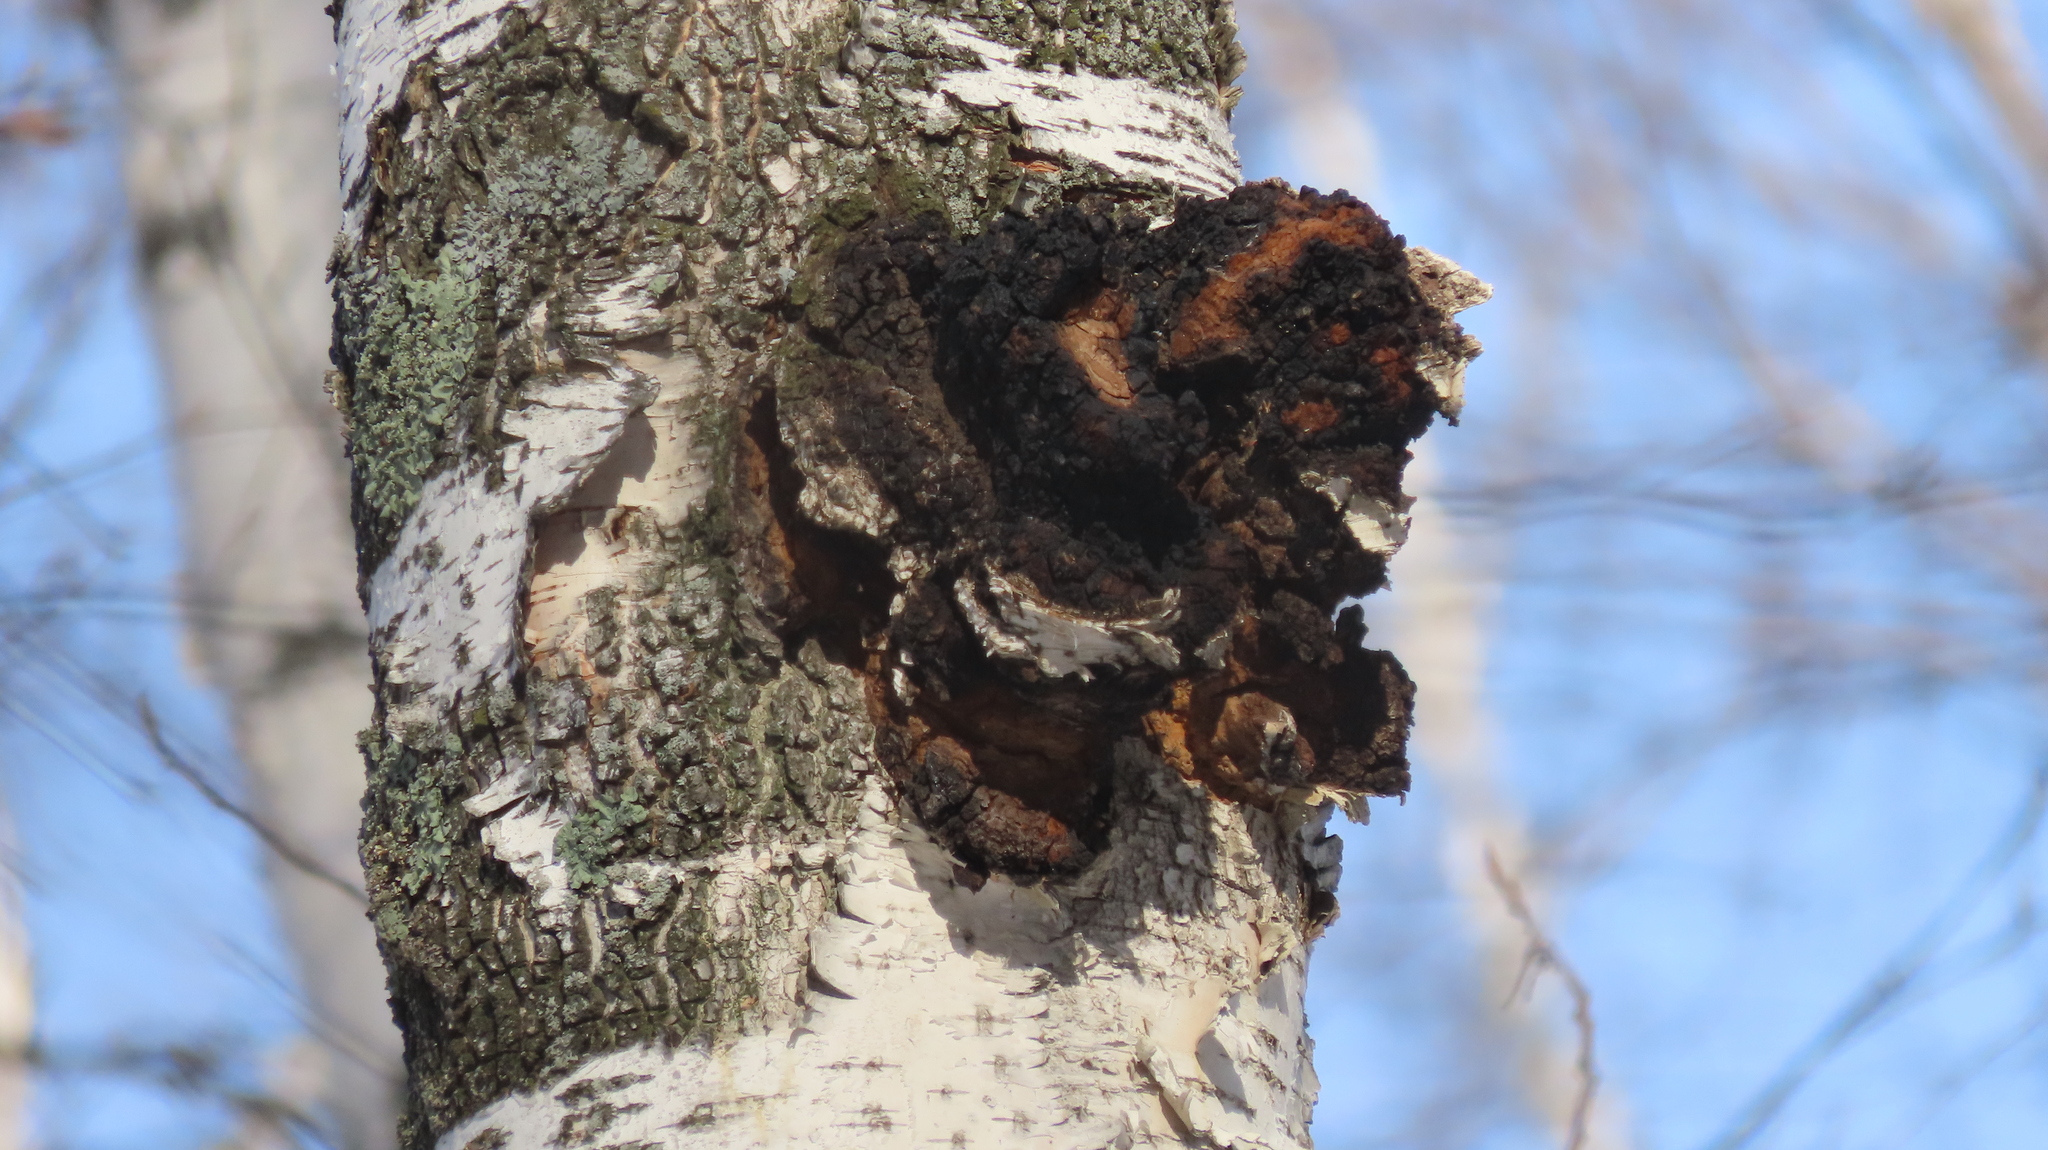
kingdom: Fungi
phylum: Basidiomycota
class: Agaricomycetes
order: Hymenochaetales
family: Hymenochaetaceae
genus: Inonotus
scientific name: Inonotus obliquus
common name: Chaga
